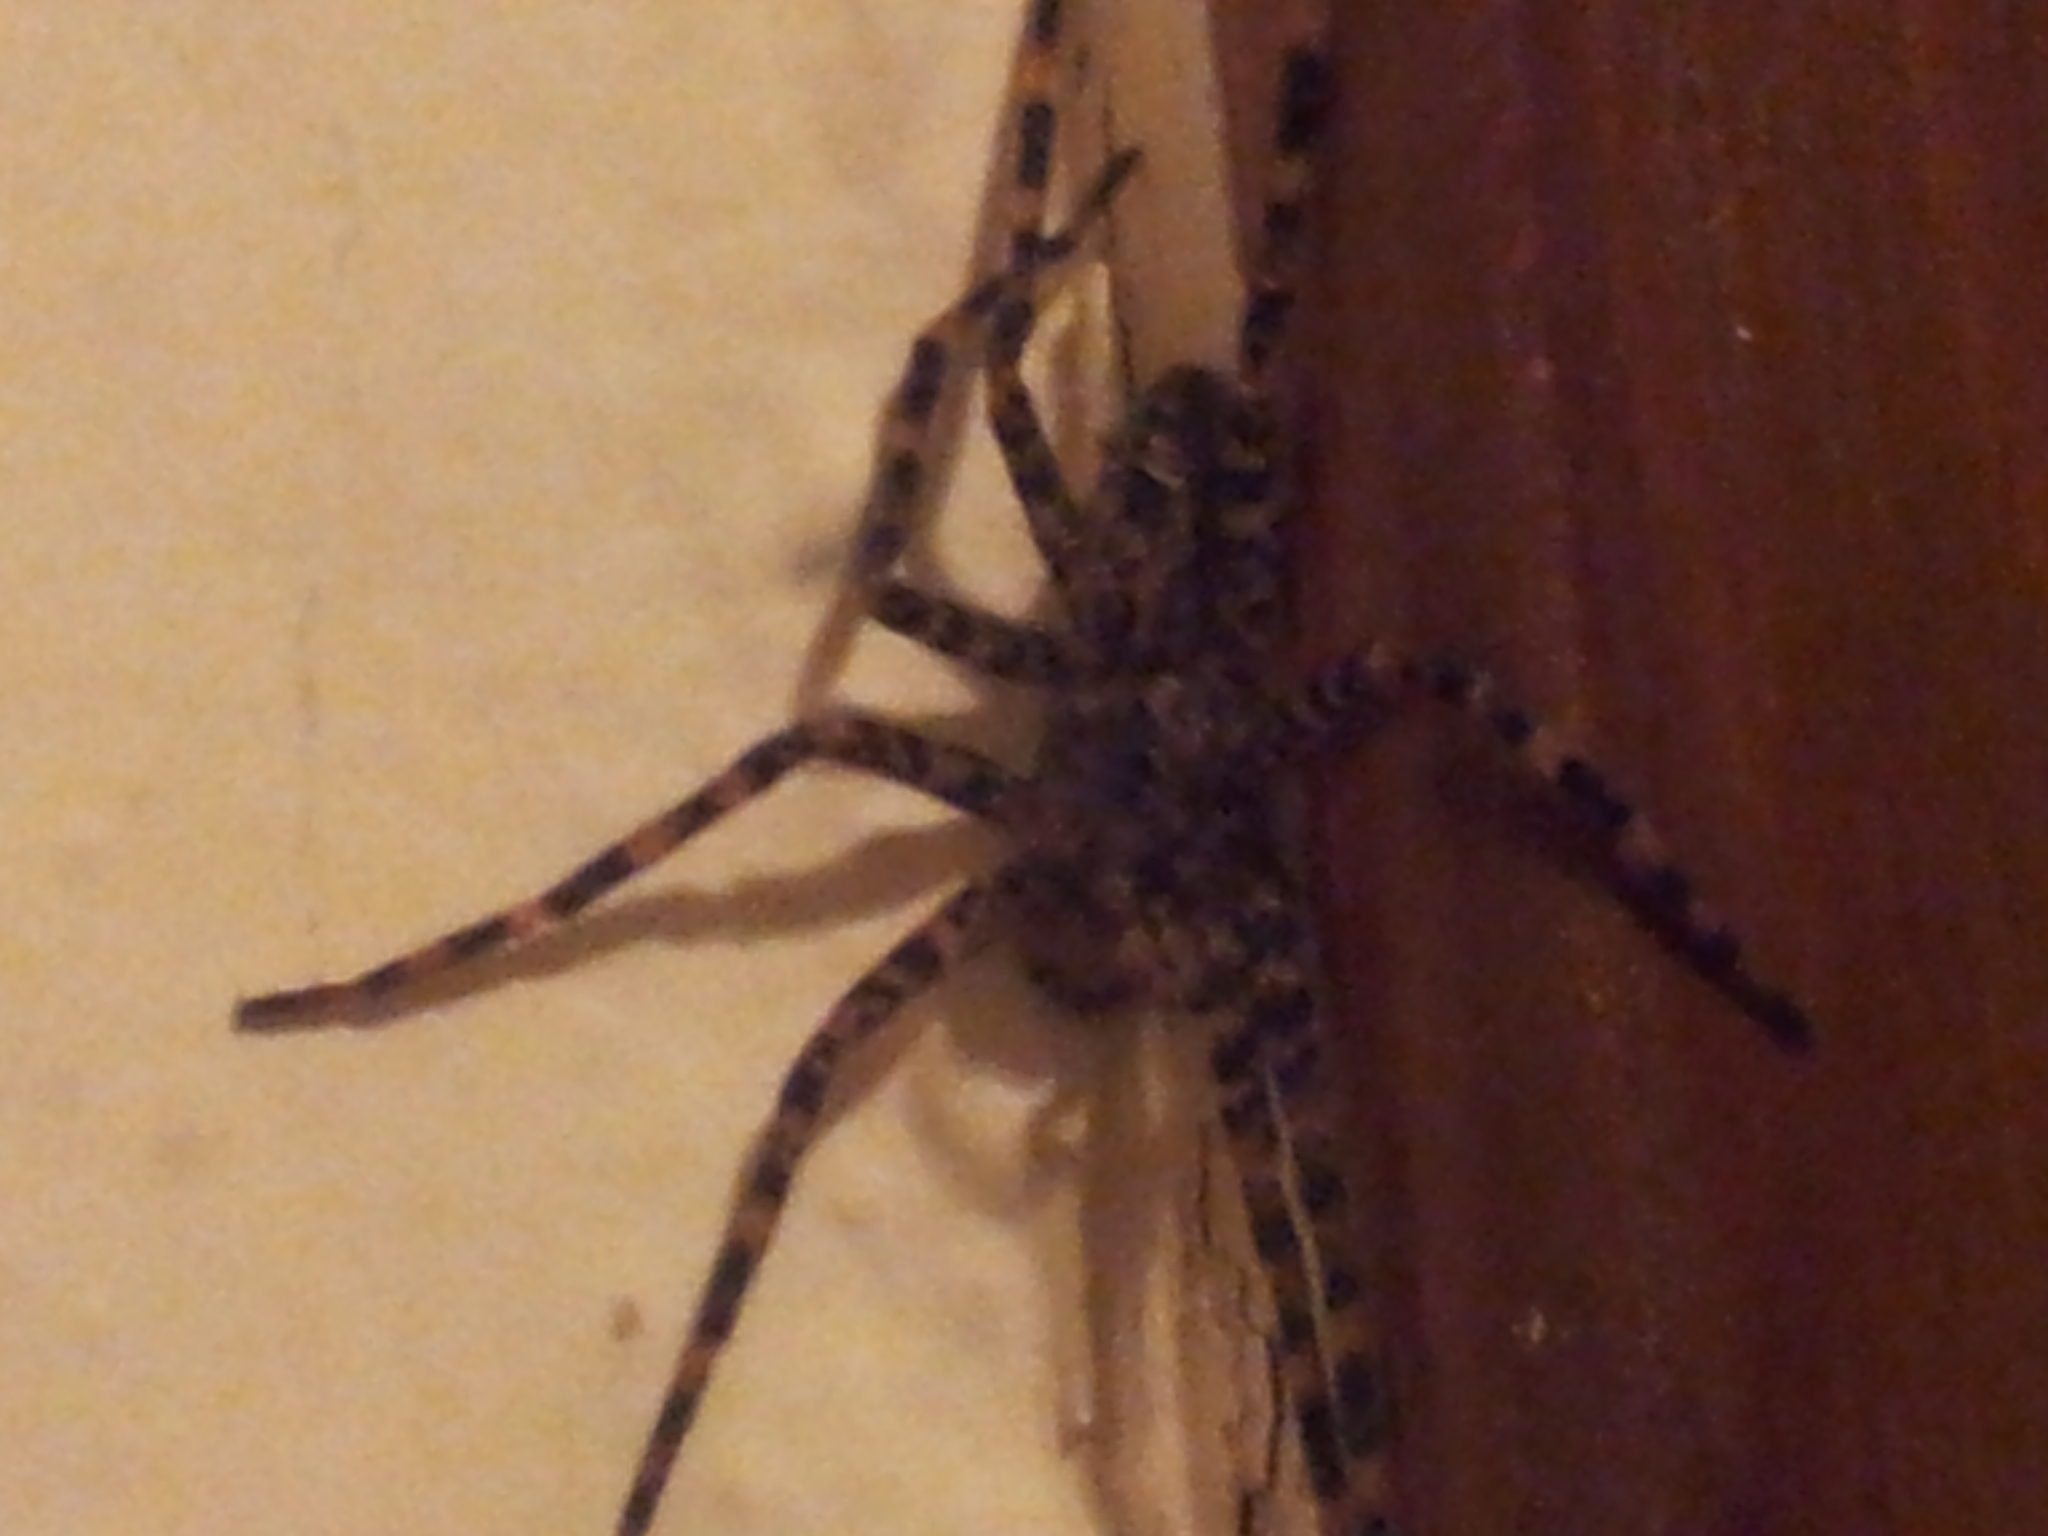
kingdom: Animalia
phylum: Arthropoda
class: Arachnida
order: Araneae
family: Pisauridae
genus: Dolomedes
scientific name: Dolomedes tenebrosus
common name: Dark fishing spider
